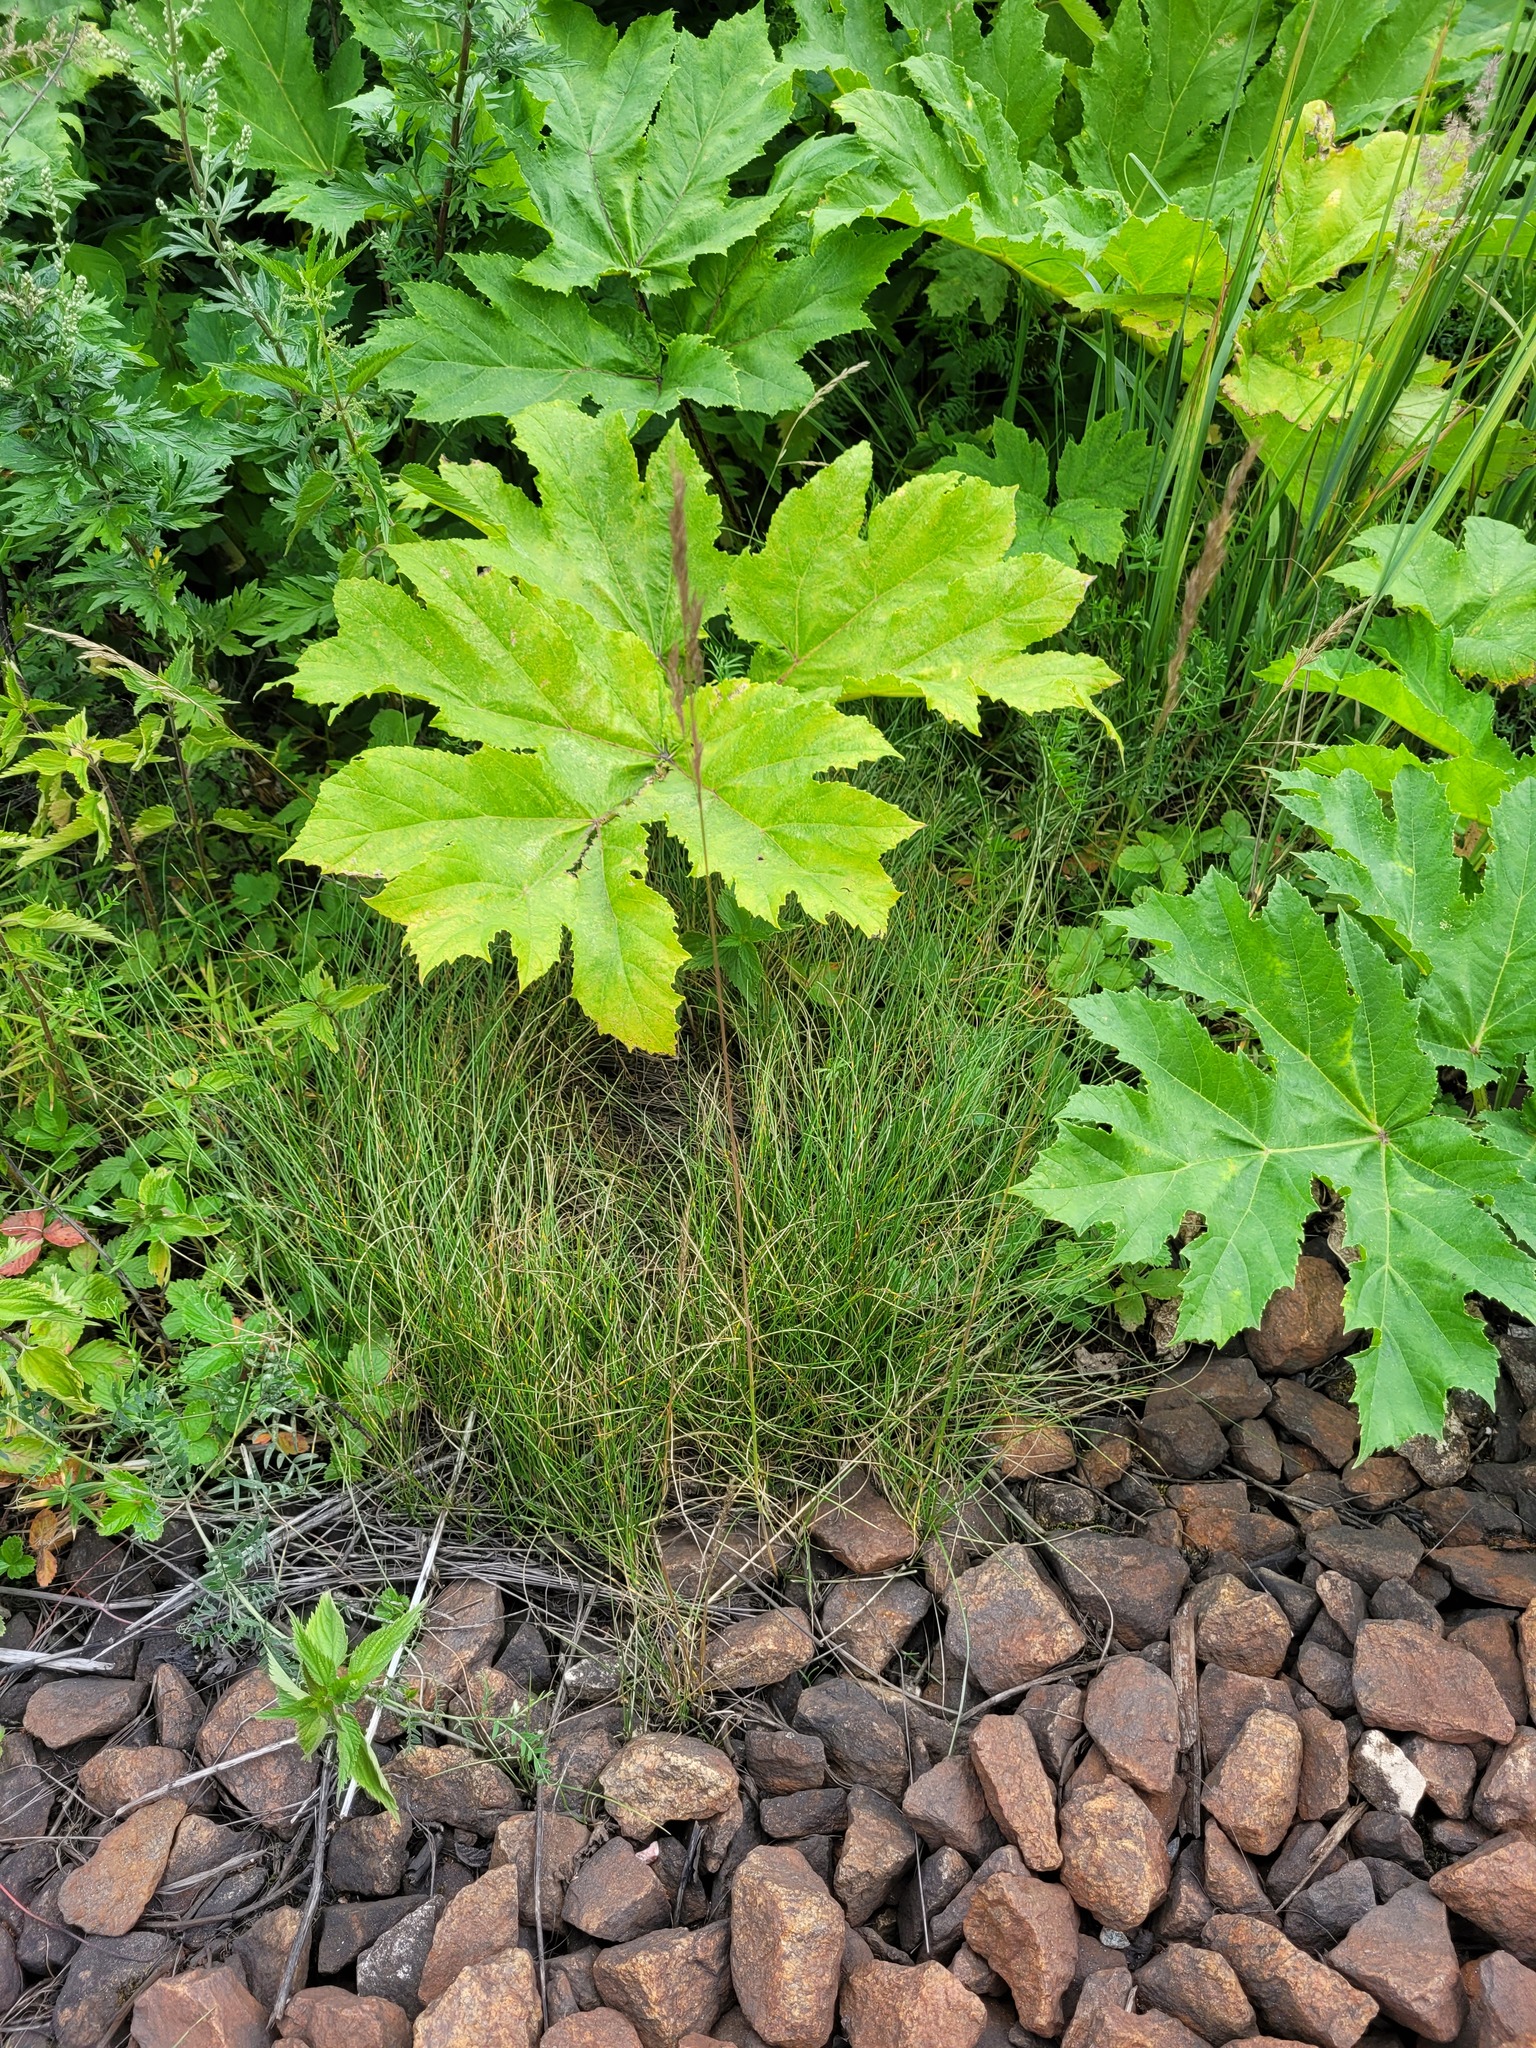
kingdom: Plantae
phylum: Tracheophyta
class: Liliopsida
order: Poales
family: Poaceae
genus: Festuca
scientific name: Festuca rubra
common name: Red fescue
